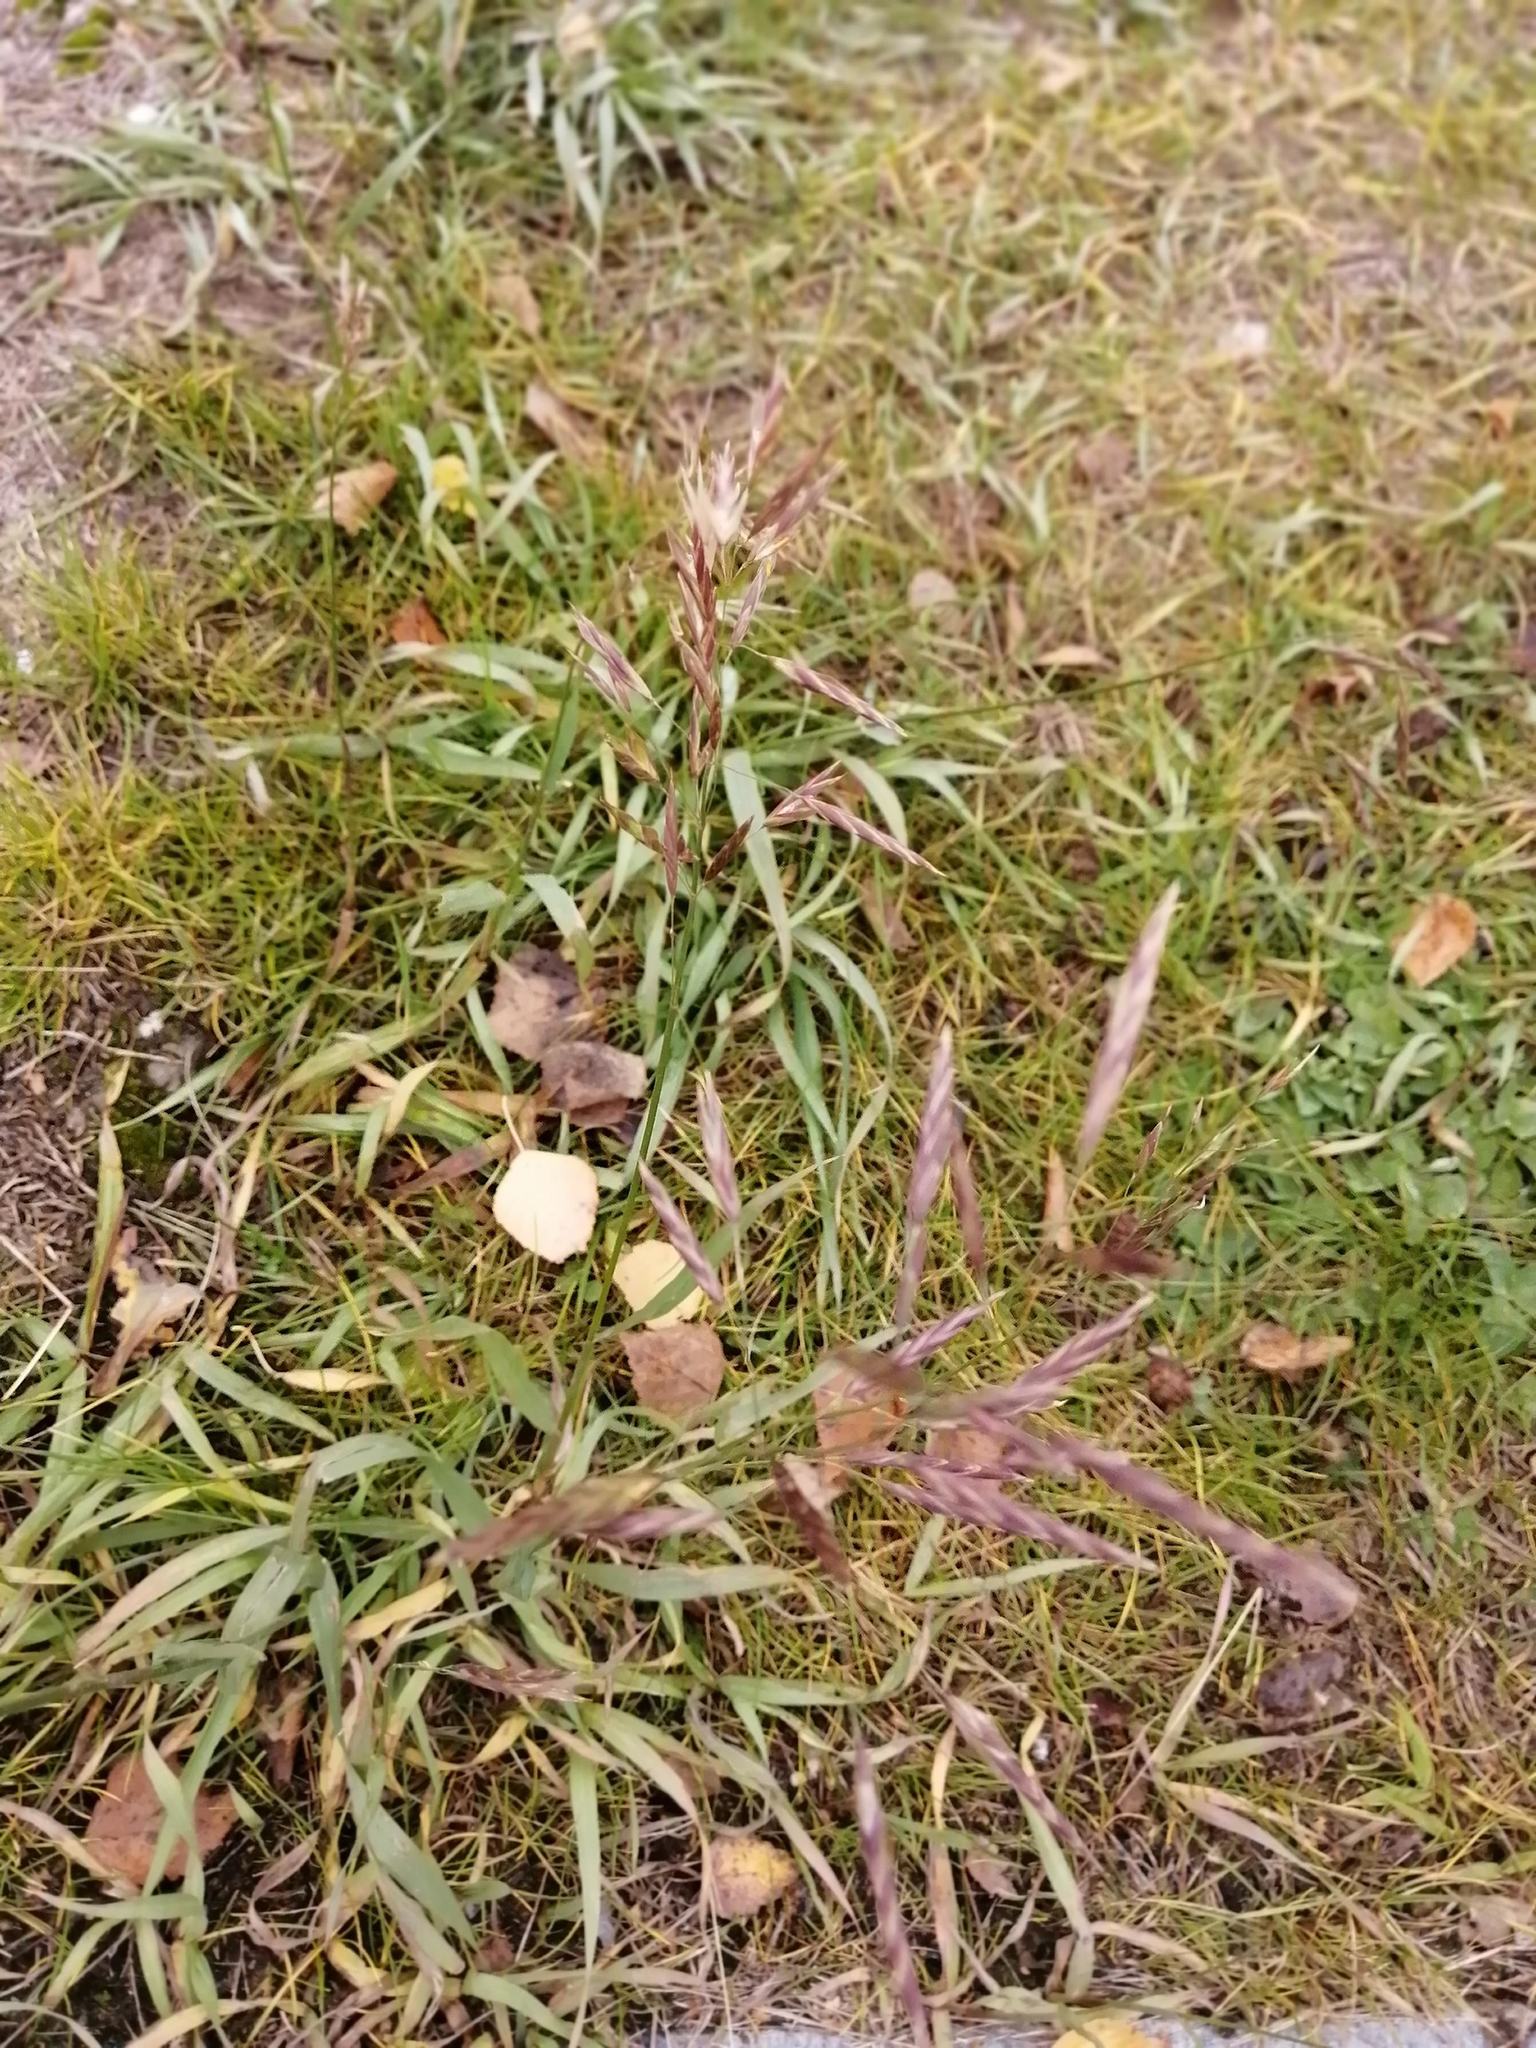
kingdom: Plantae
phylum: Tracheophyta
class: Liliopsida
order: Poales
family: Poaceae
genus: Bromus
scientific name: Bromus inermis
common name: Smooth brome
